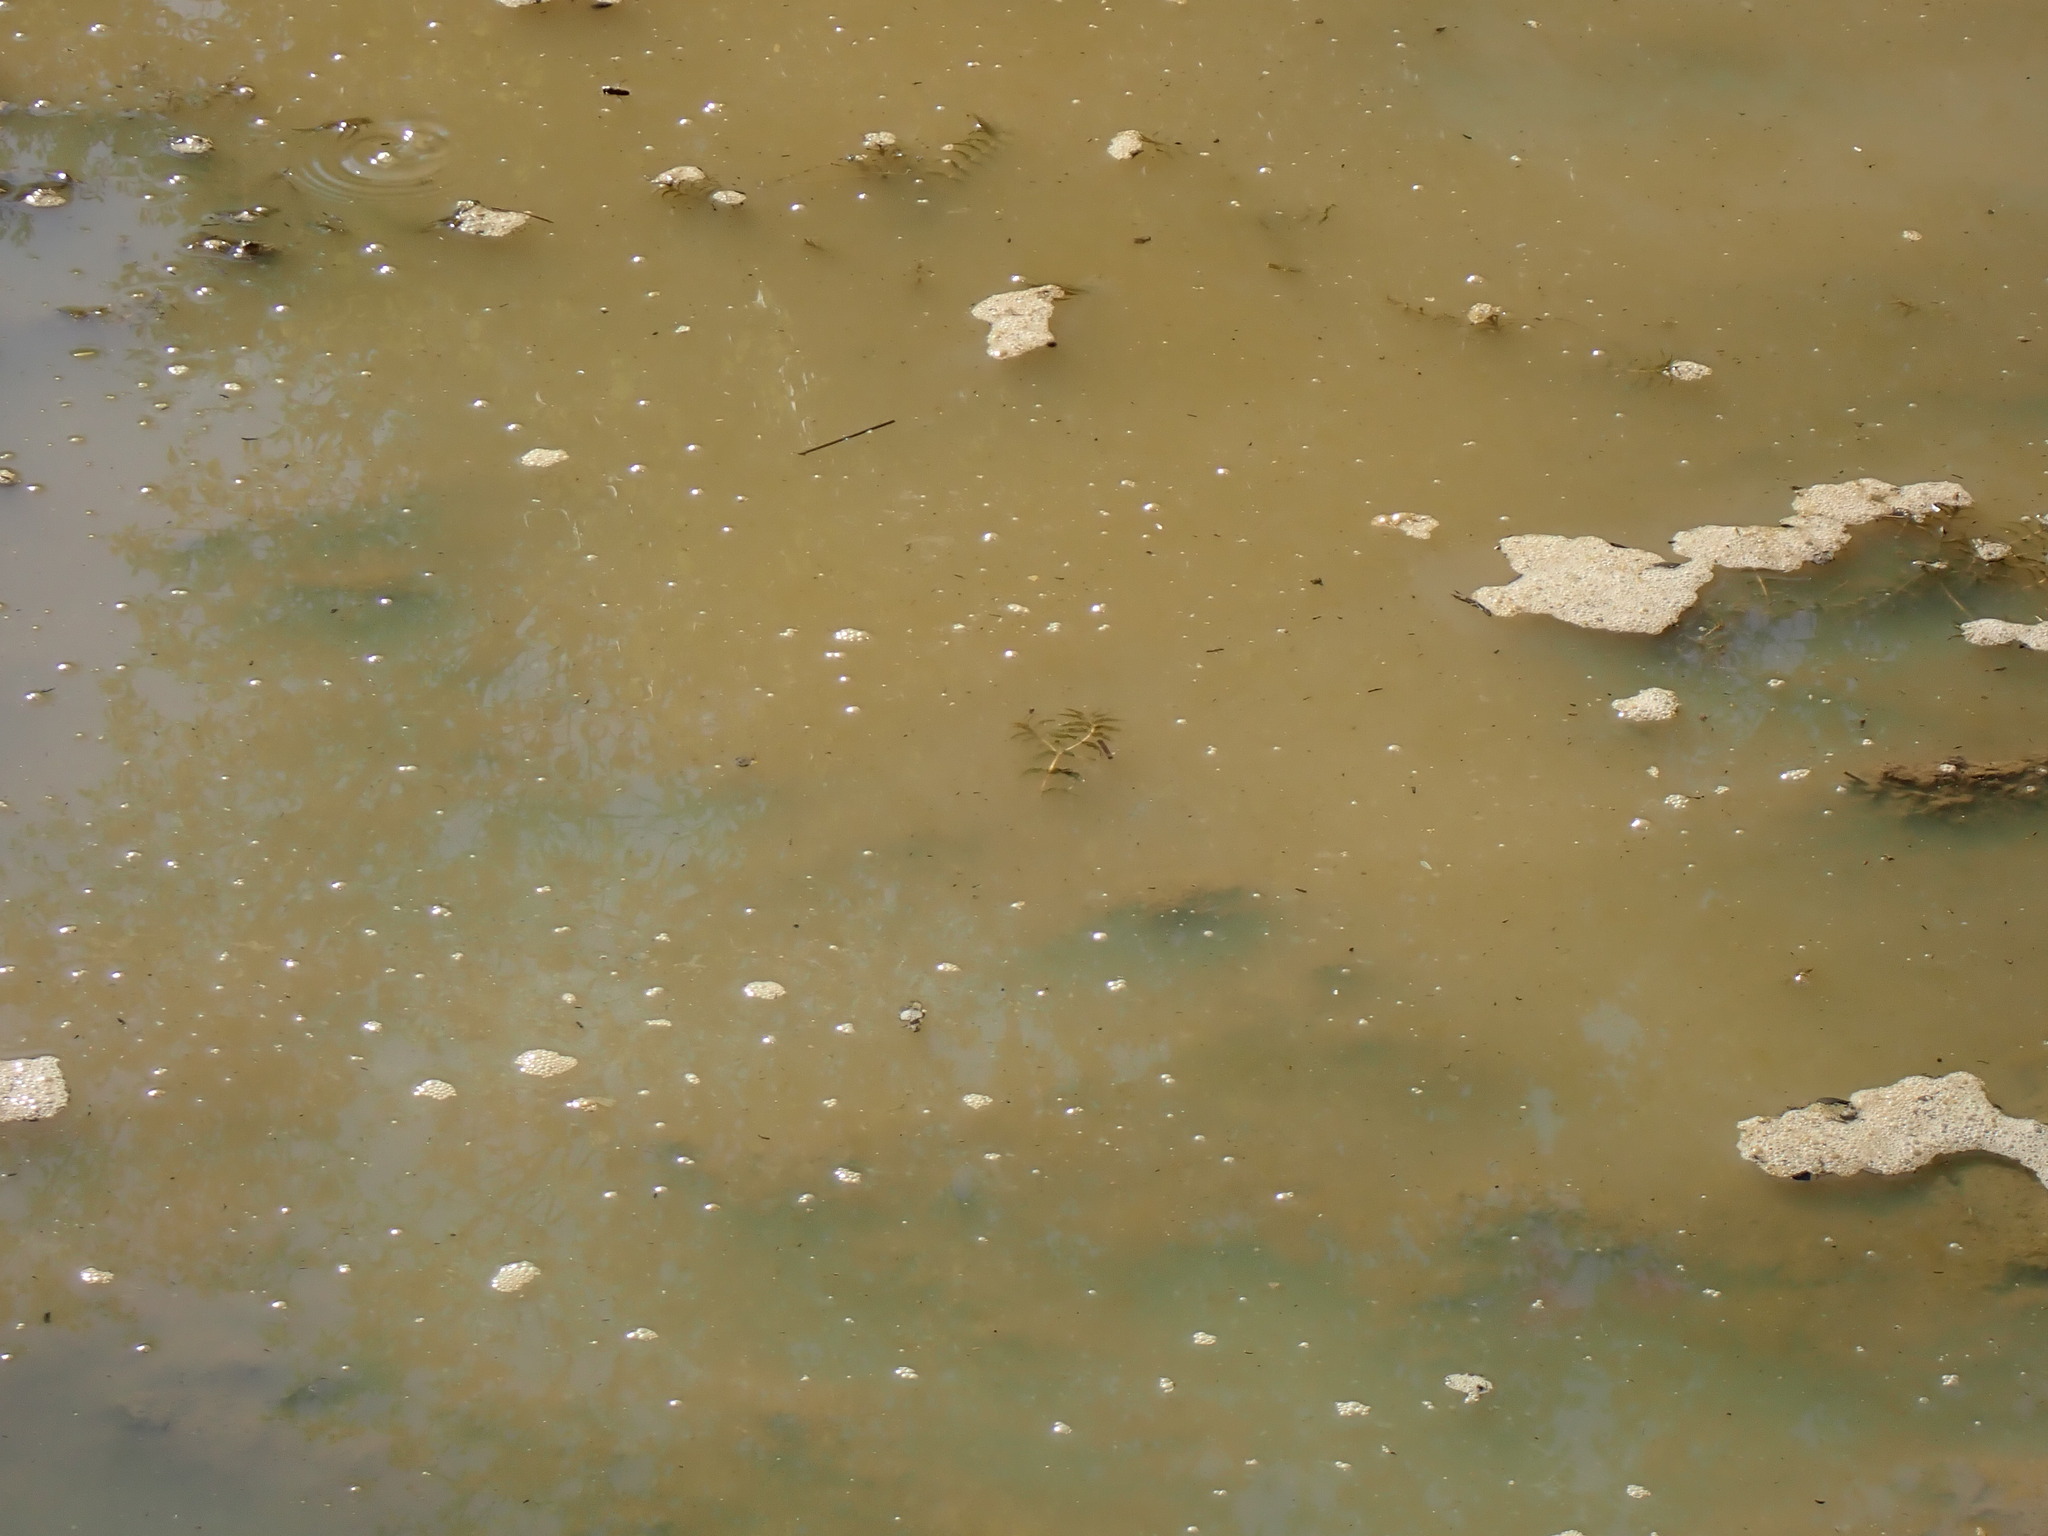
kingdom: Plantae
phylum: Tracheophyta
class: Liliopsida
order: Alismatales
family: Potamogetonaceae
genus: Groenlandia
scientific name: Groenlandia densa
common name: Opposite-leaved pondweed
